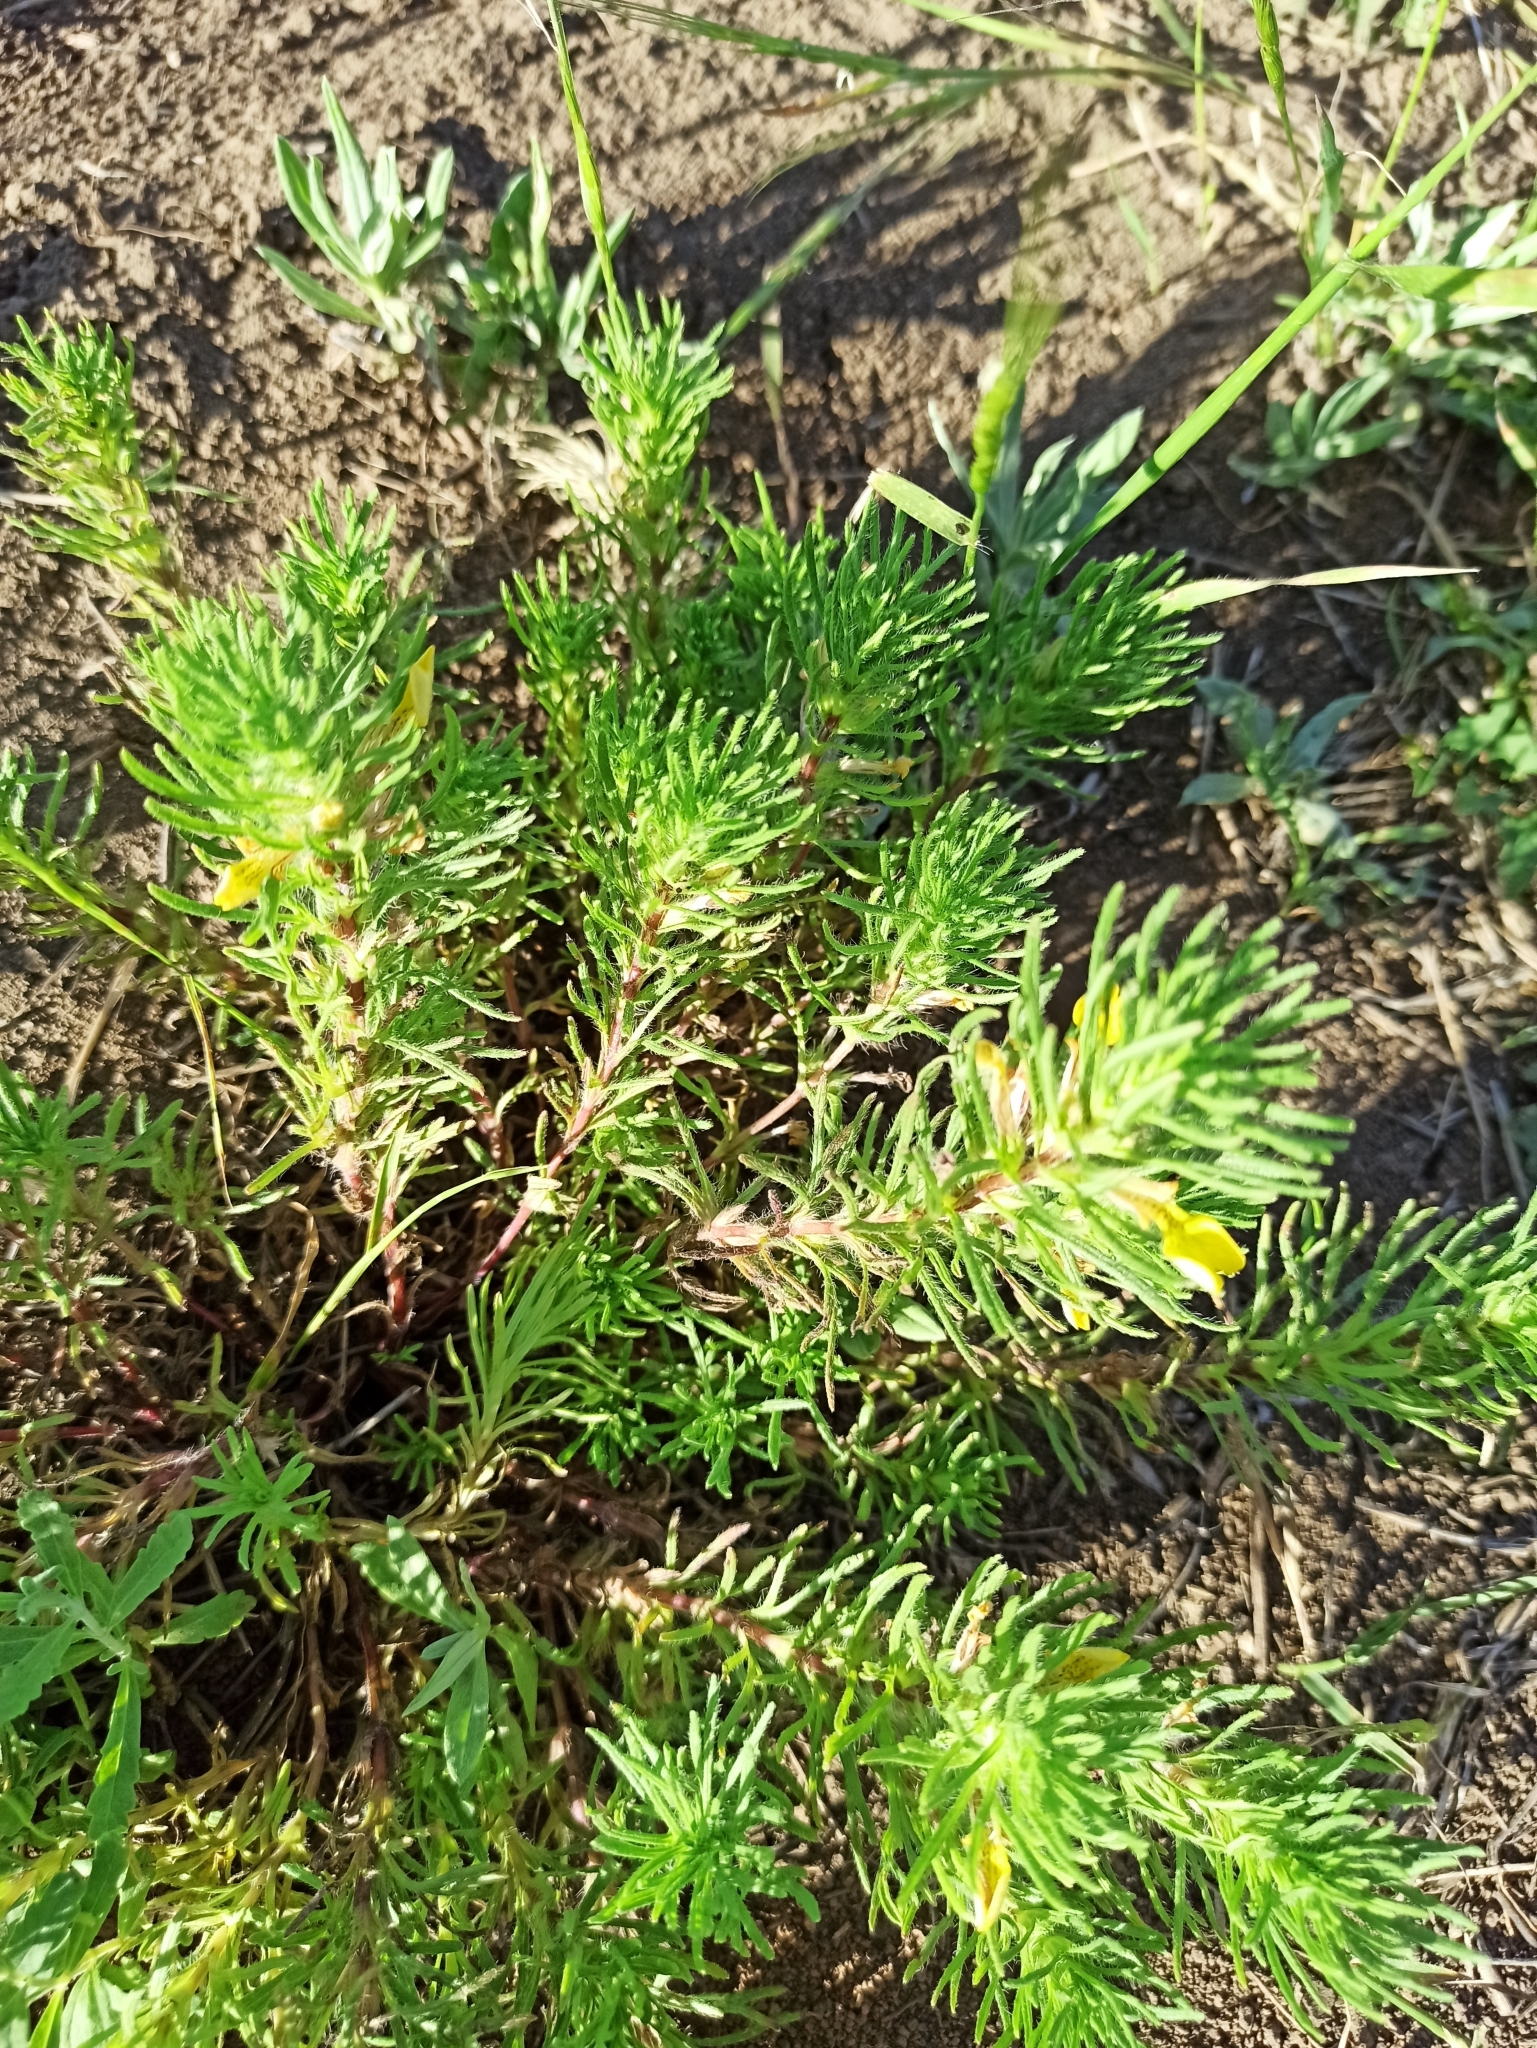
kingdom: Plantae
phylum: Tracheophyta
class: Magnoliopsida
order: Lamiales
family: Lamiaceae
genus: Ajuga
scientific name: Ajuga chamaepitys
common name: Ground-pine
